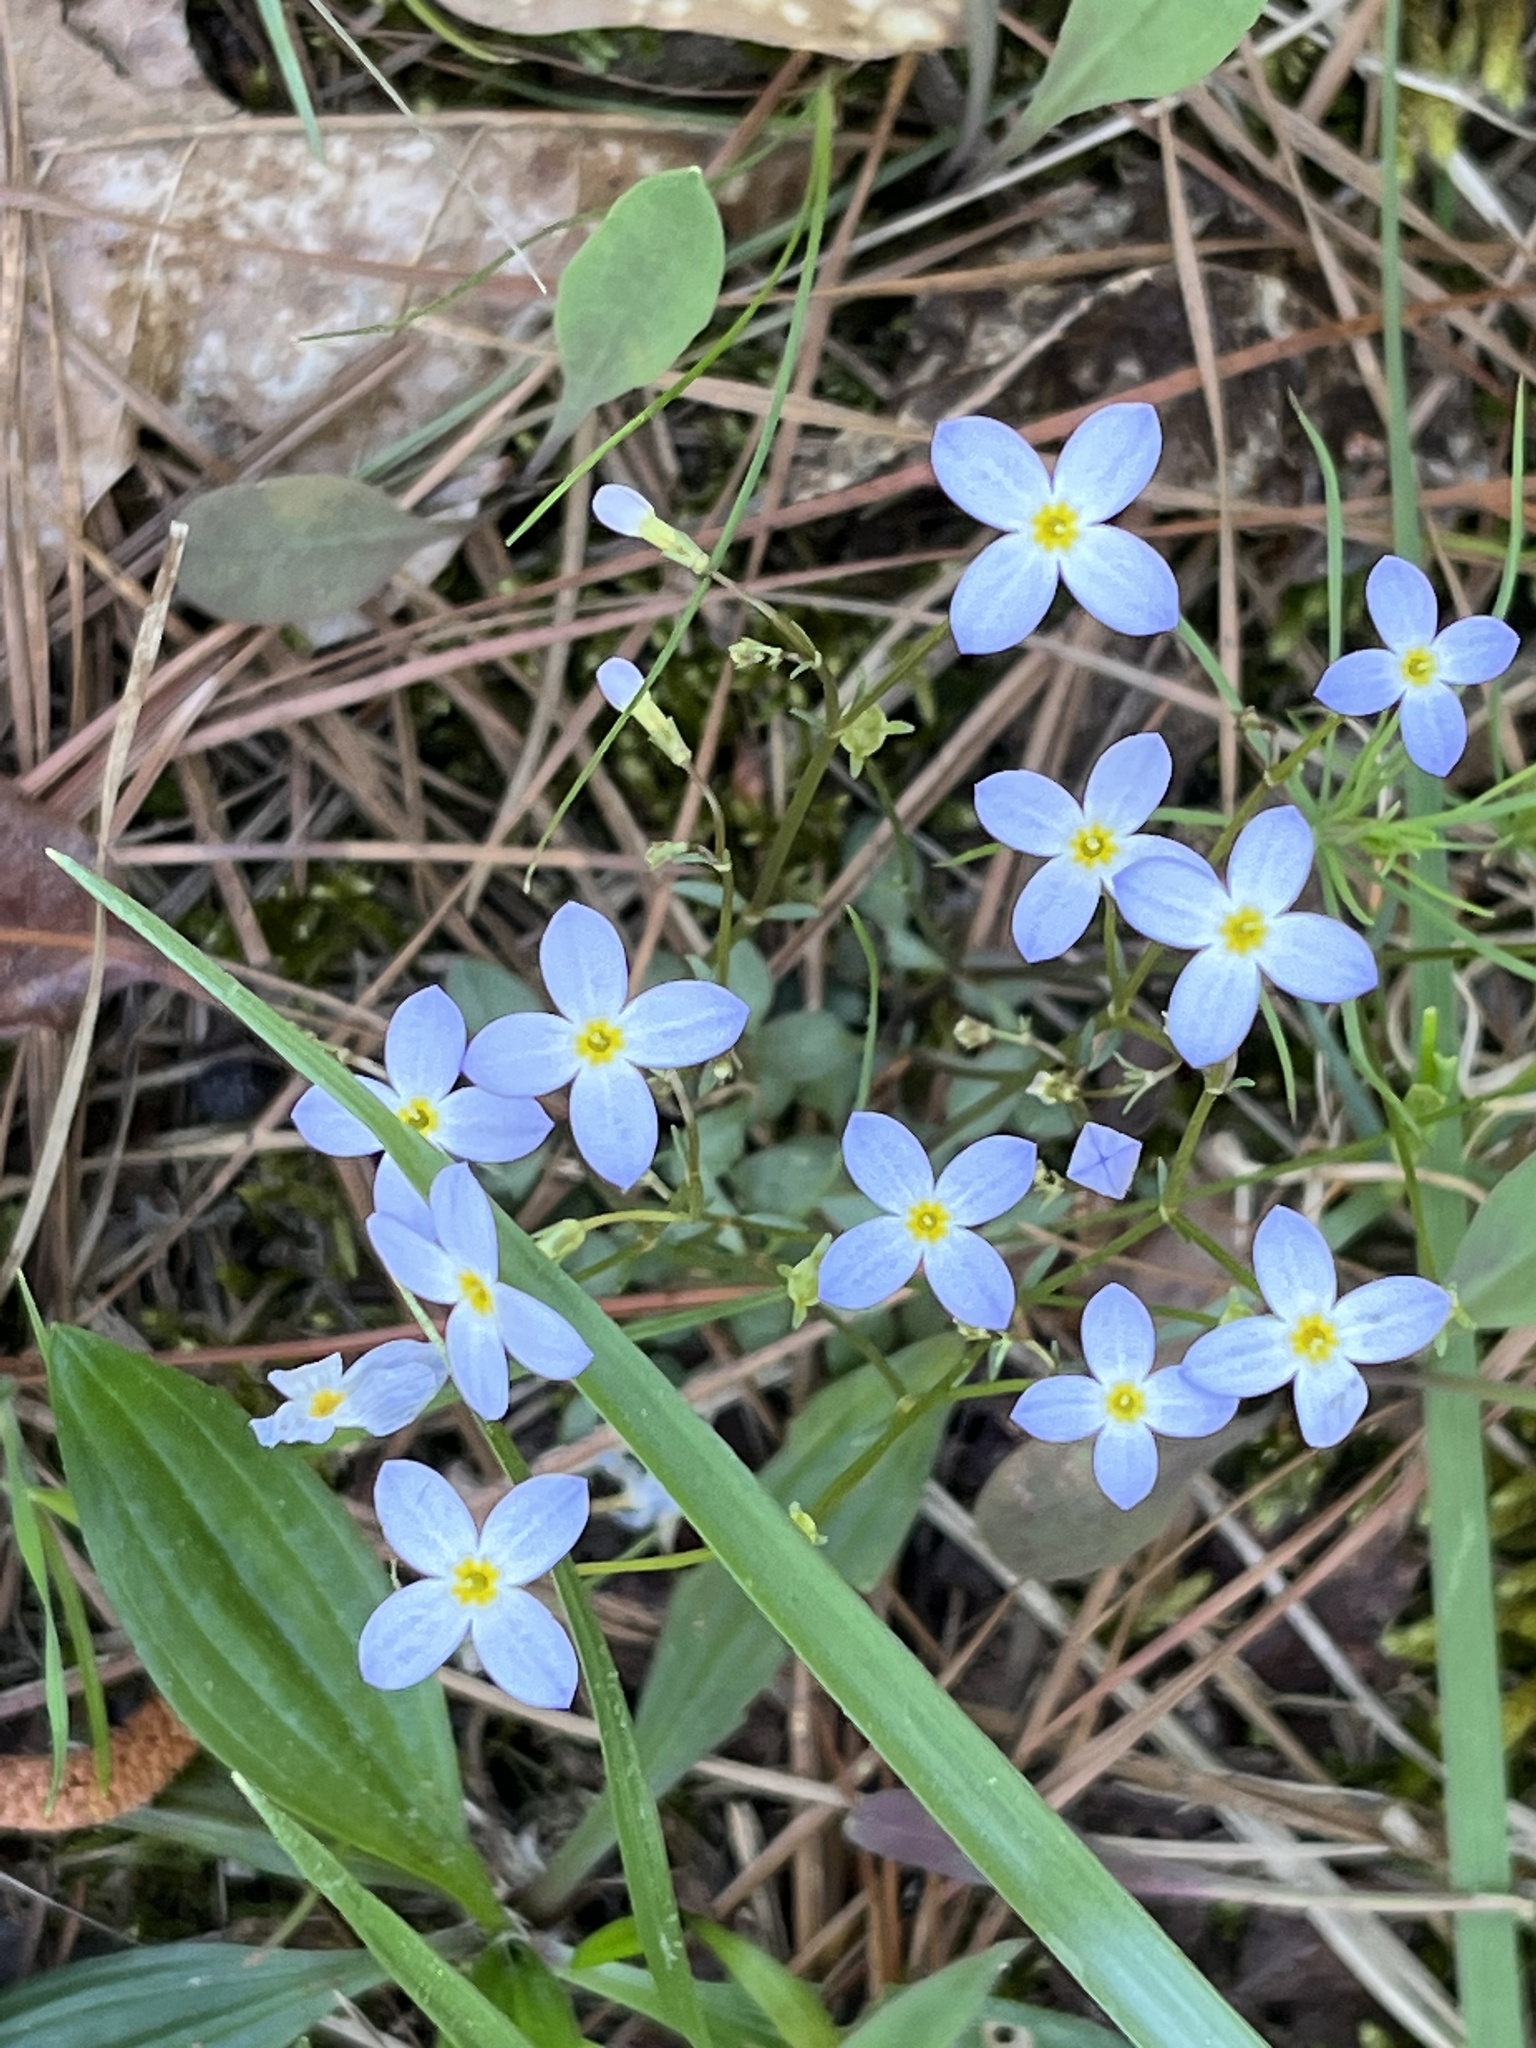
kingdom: Plantae
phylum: Tracheophyta
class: Magnoliopsida
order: Gentianales
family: Rubiaceae
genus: Houstonia
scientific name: Houstonia caerulea
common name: Bluets
